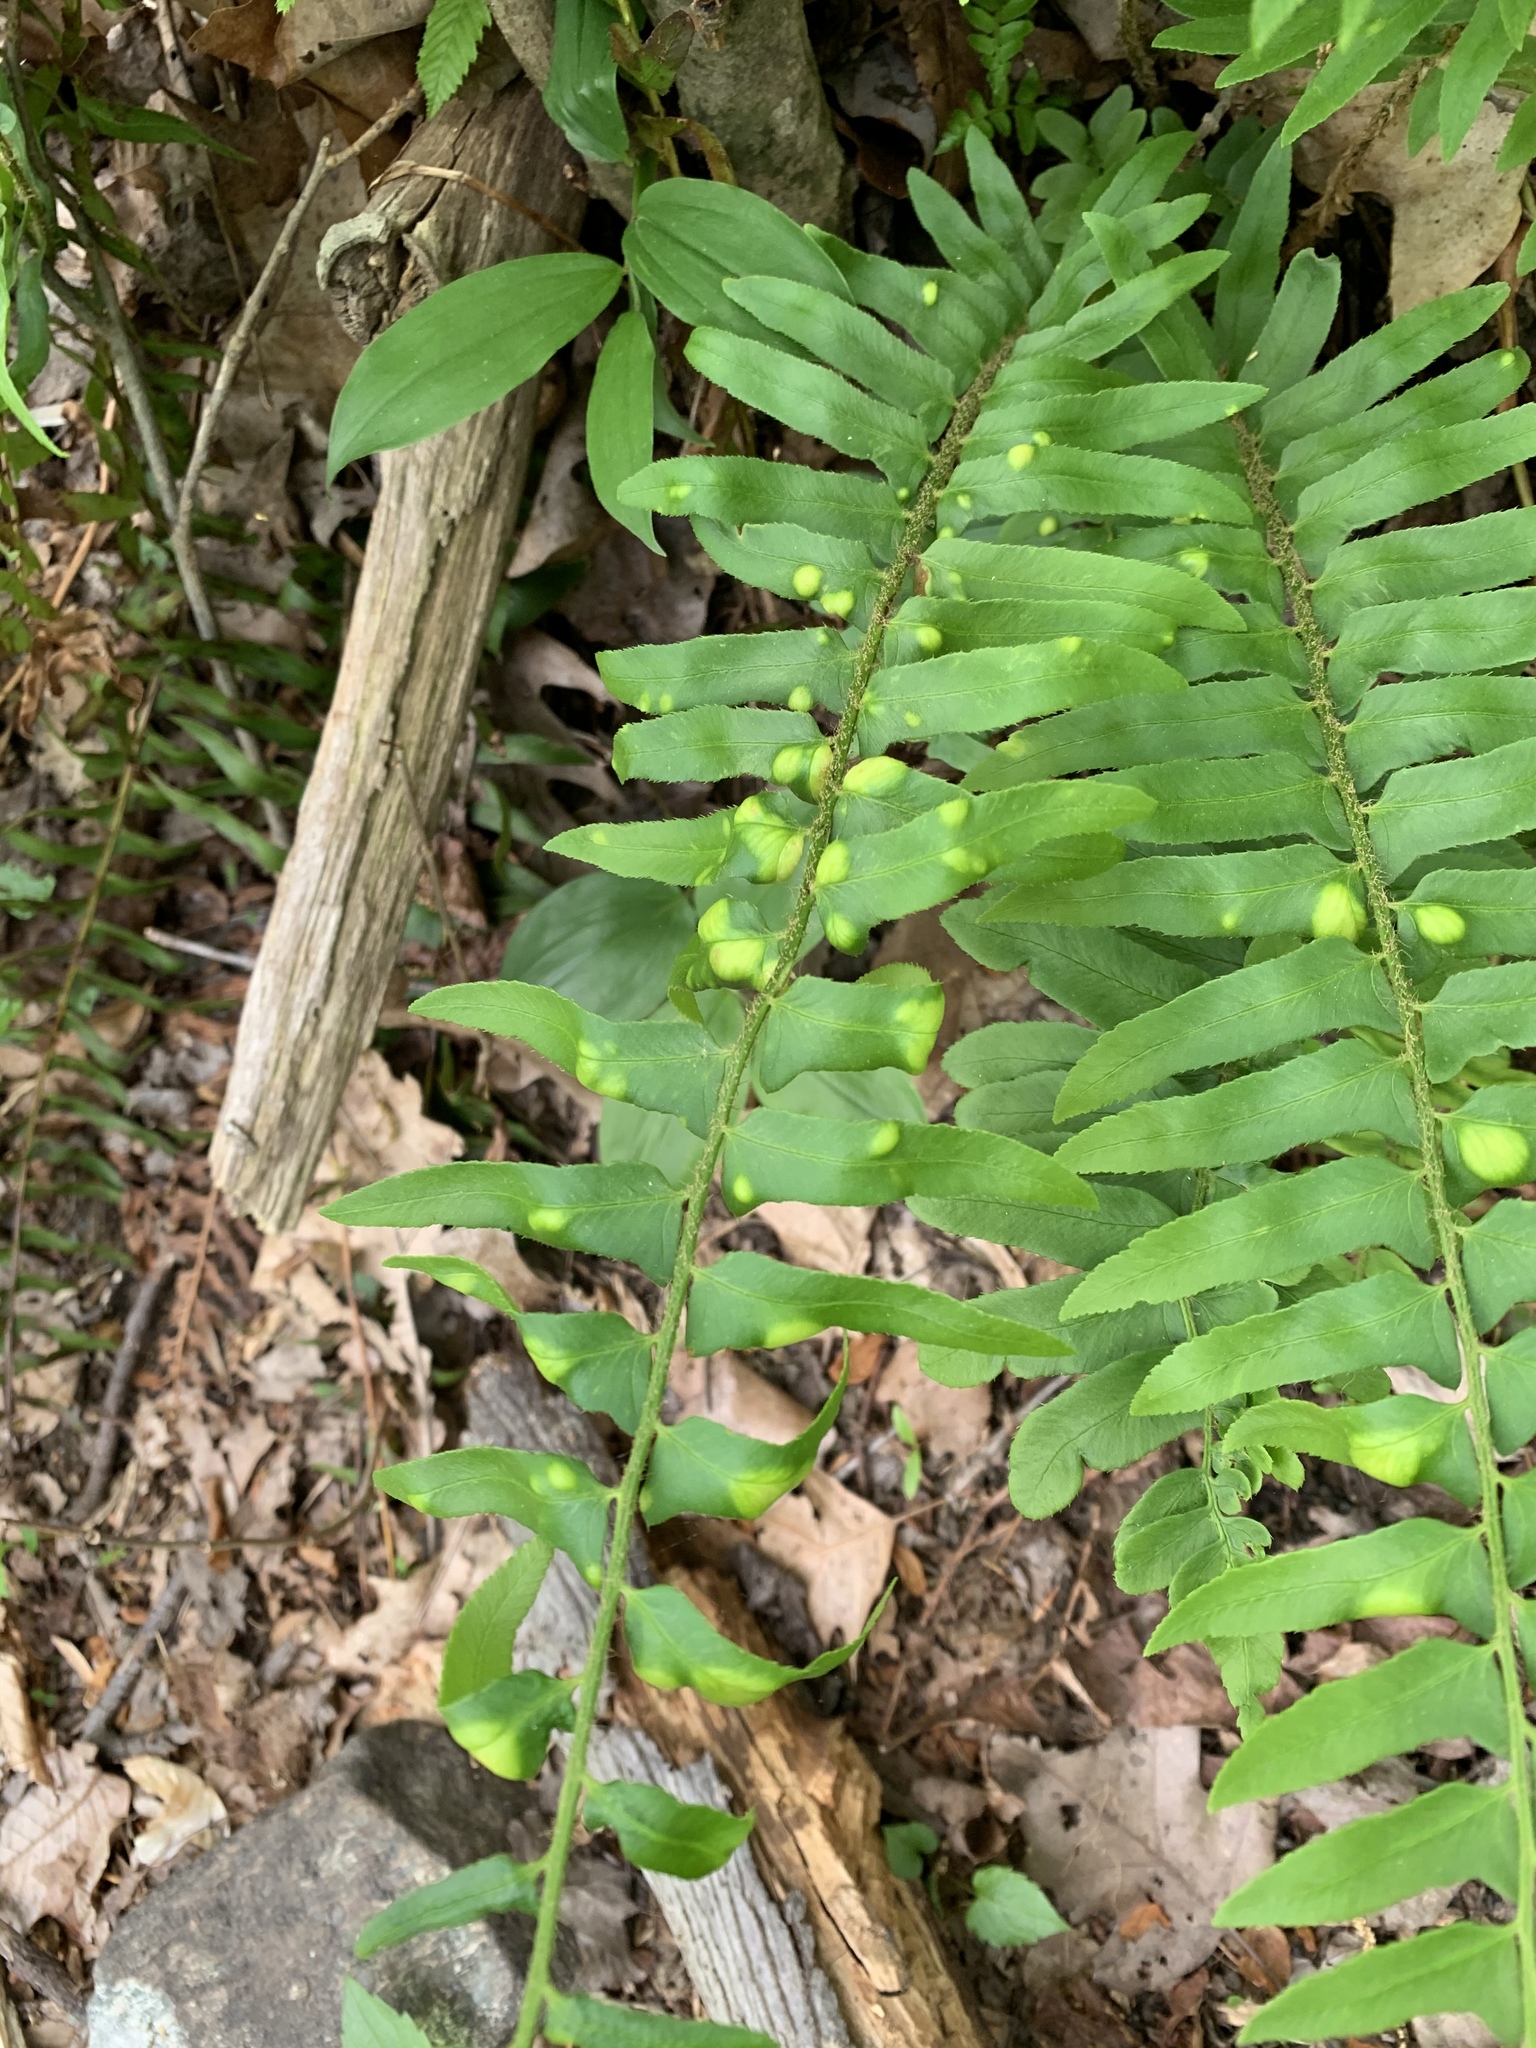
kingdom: Fungi
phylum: Ascomycota
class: Taphrinomycetes
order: Taphrinales
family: Taphrinaceae
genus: Taphrina
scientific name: Taphrina polystichi
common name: Christmas fern leaf curl
